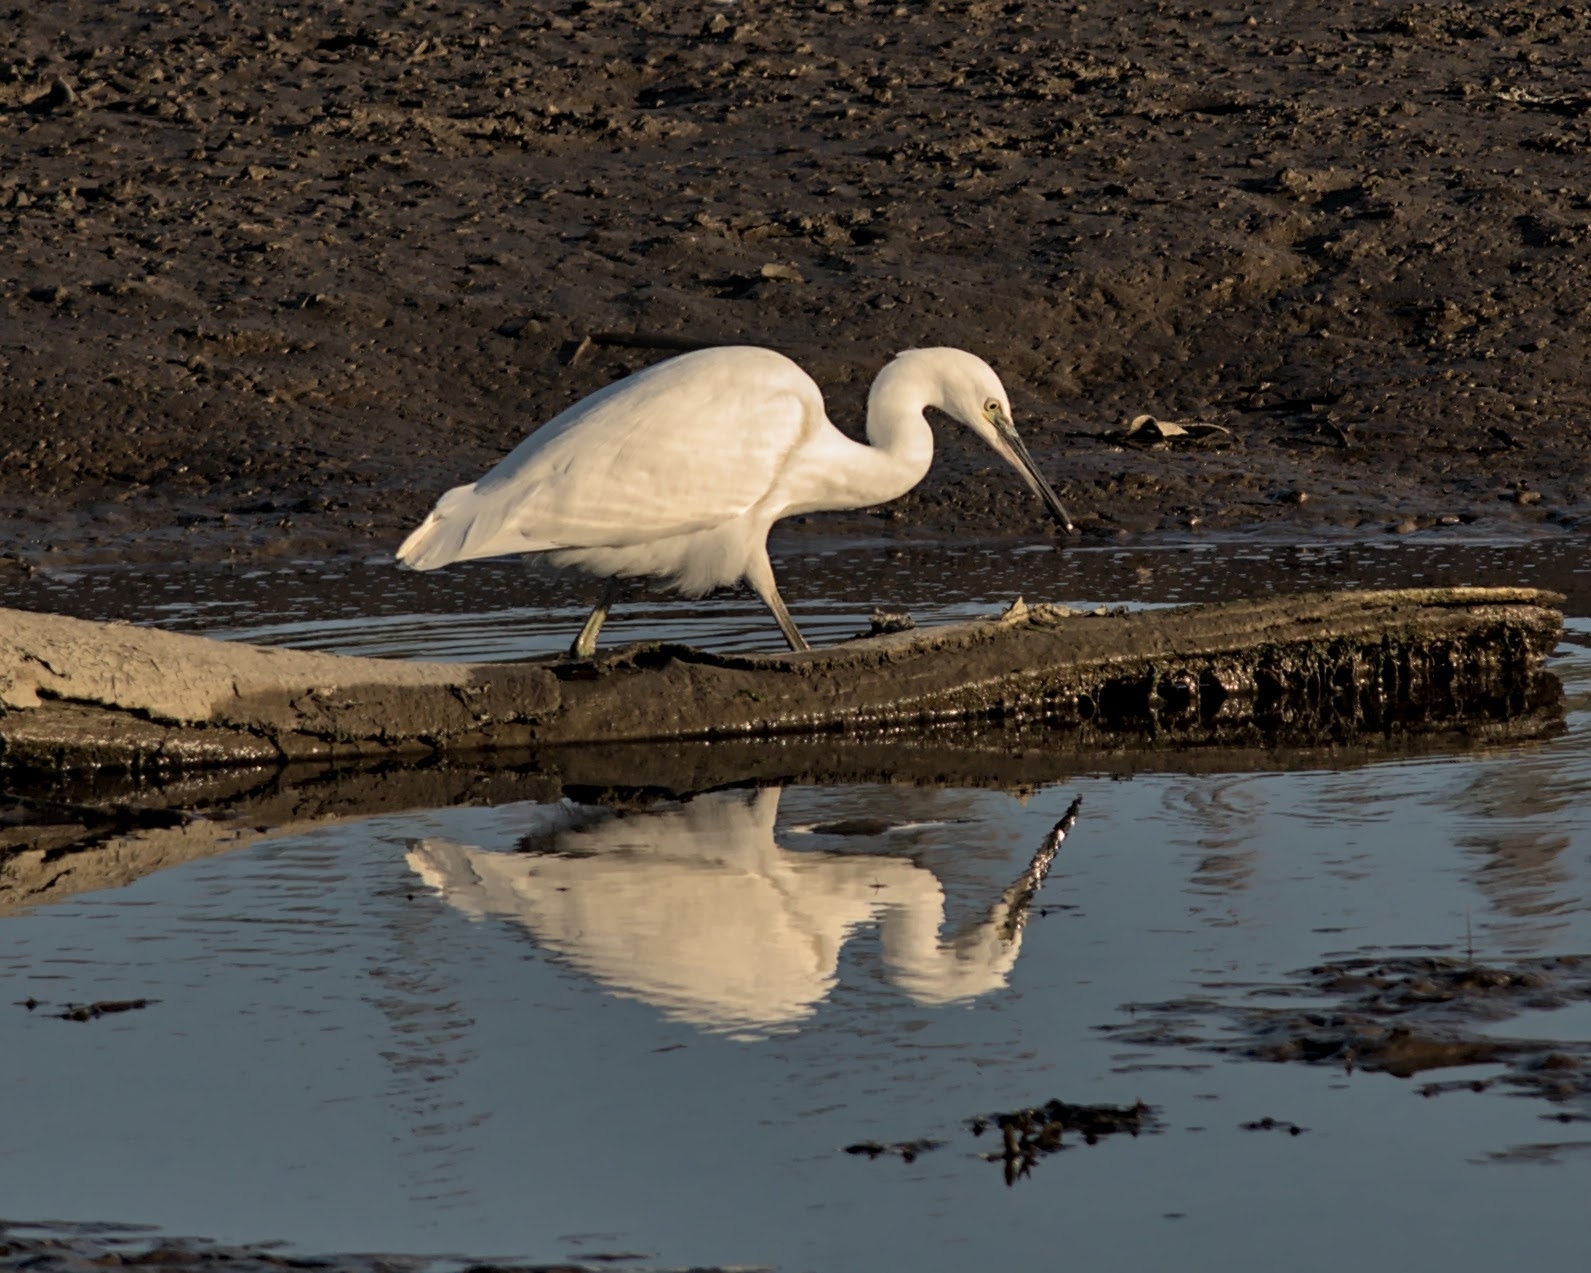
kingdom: Animalia
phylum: Chordata
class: Aves
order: Pelecaniformes
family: Ardeidae
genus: Egretta
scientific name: Egretta garzetta
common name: Little egret
